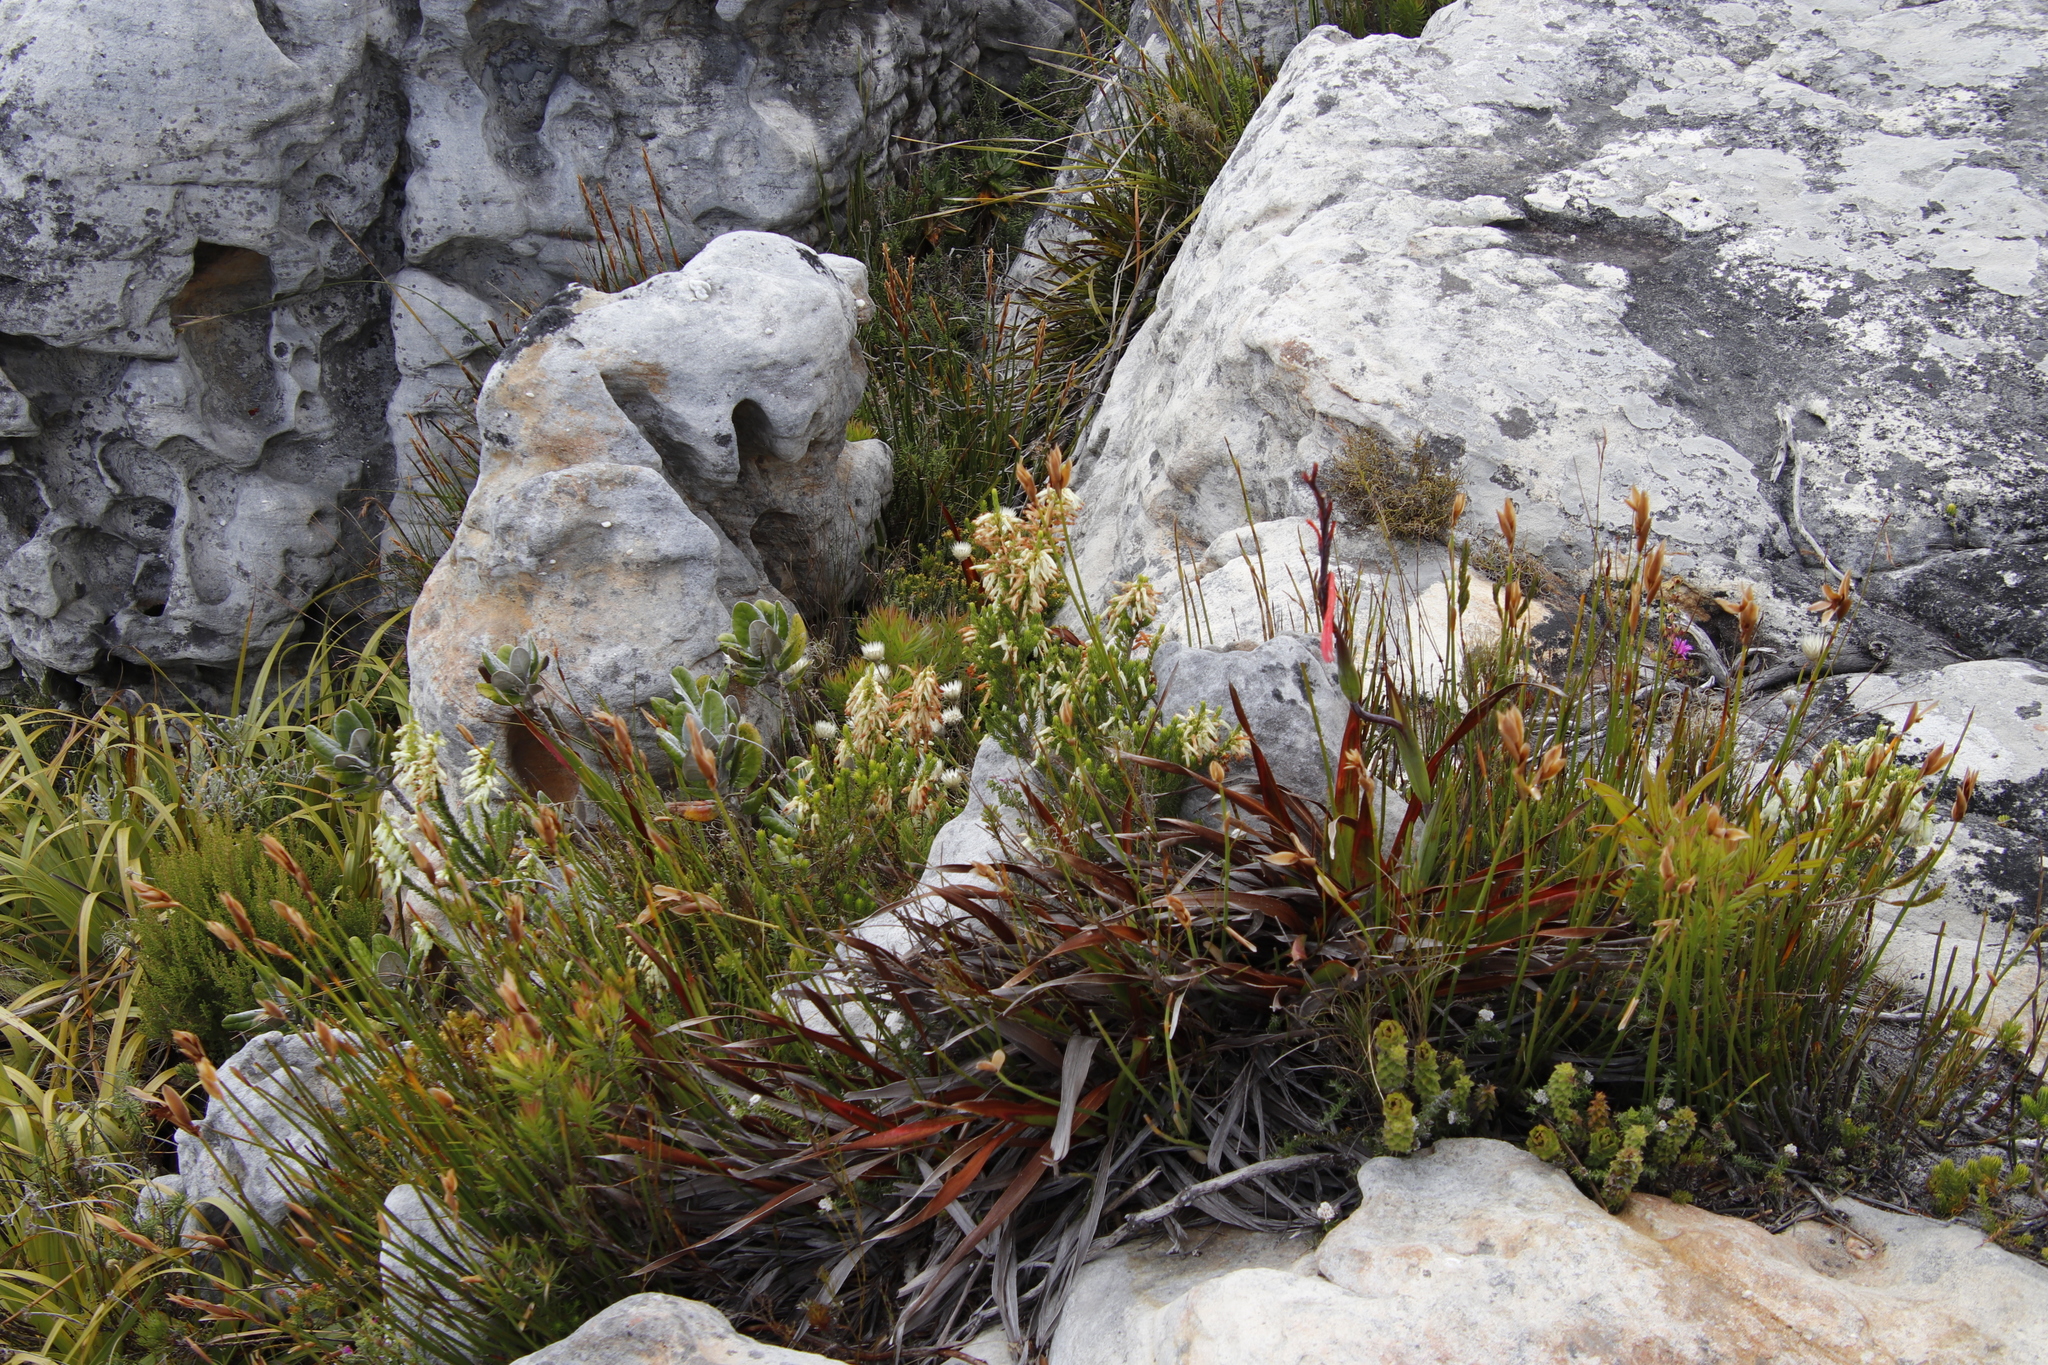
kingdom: Plantae
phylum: Tracheophyta
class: Magnoliopsida
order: Ericales
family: Ericaceae
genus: Erica
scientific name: Erica mammosa
